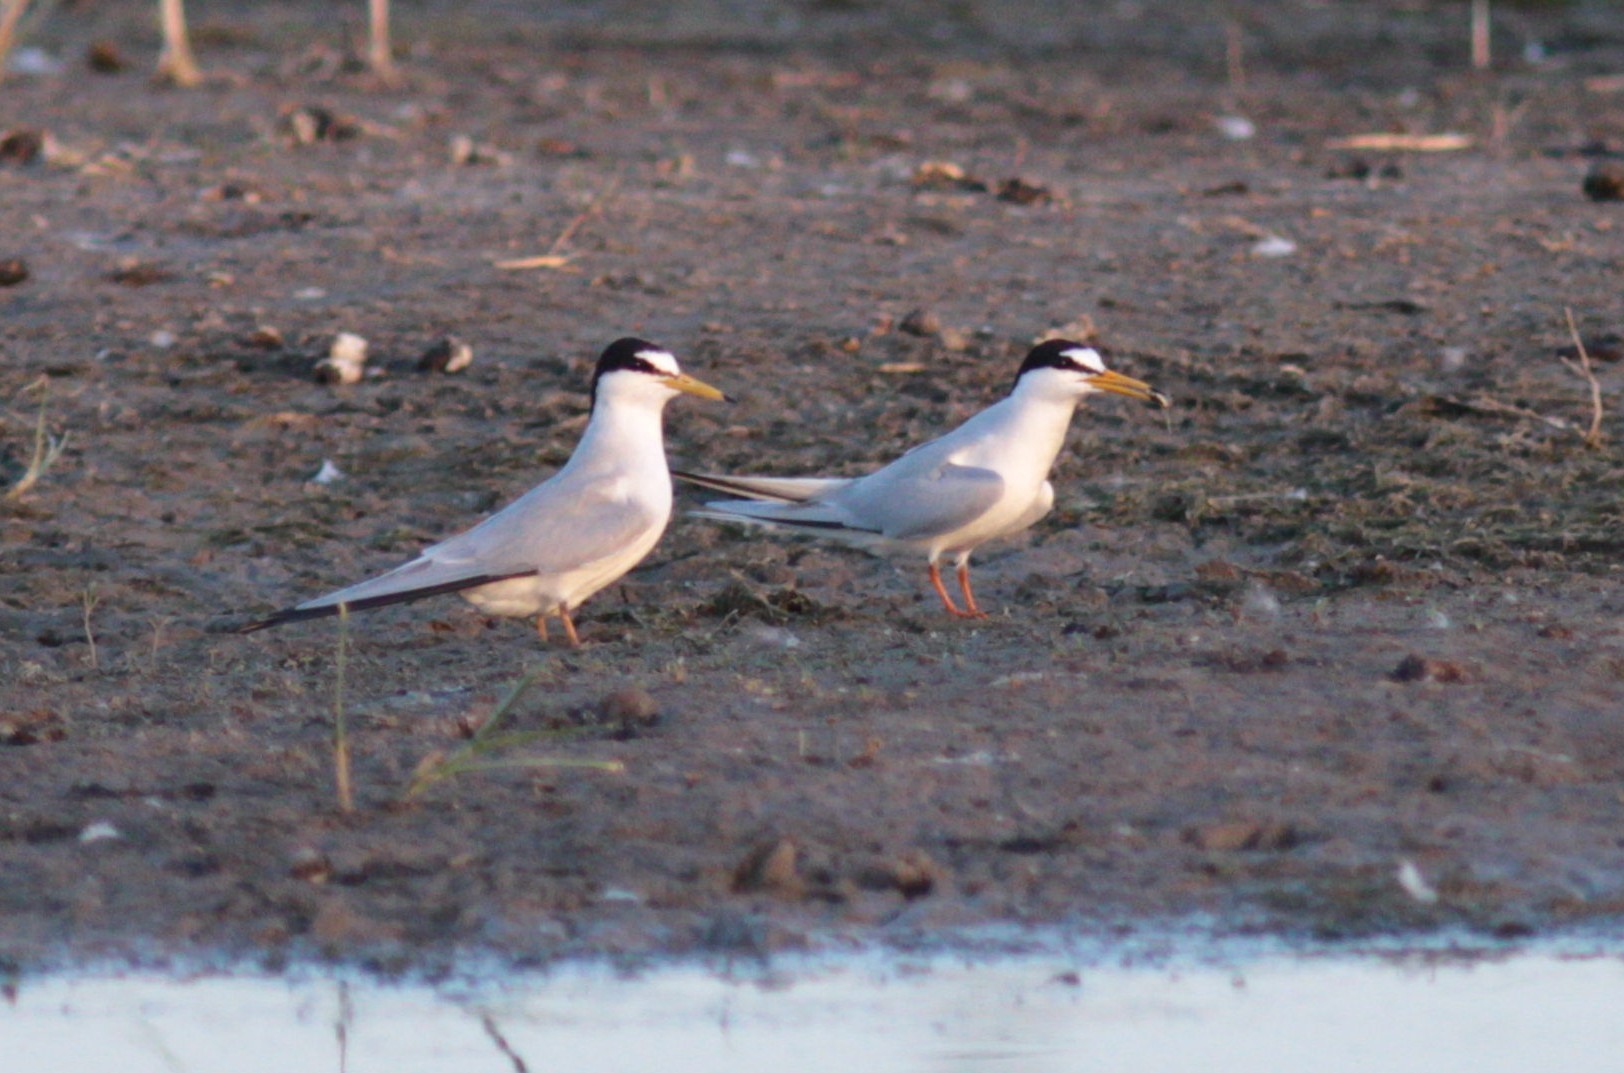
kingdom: Animalia
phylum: Chordata
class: Aves
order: Charadriiformes
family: Laridae
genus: Sternula
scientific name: Sternula albifrons
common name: Little tern
